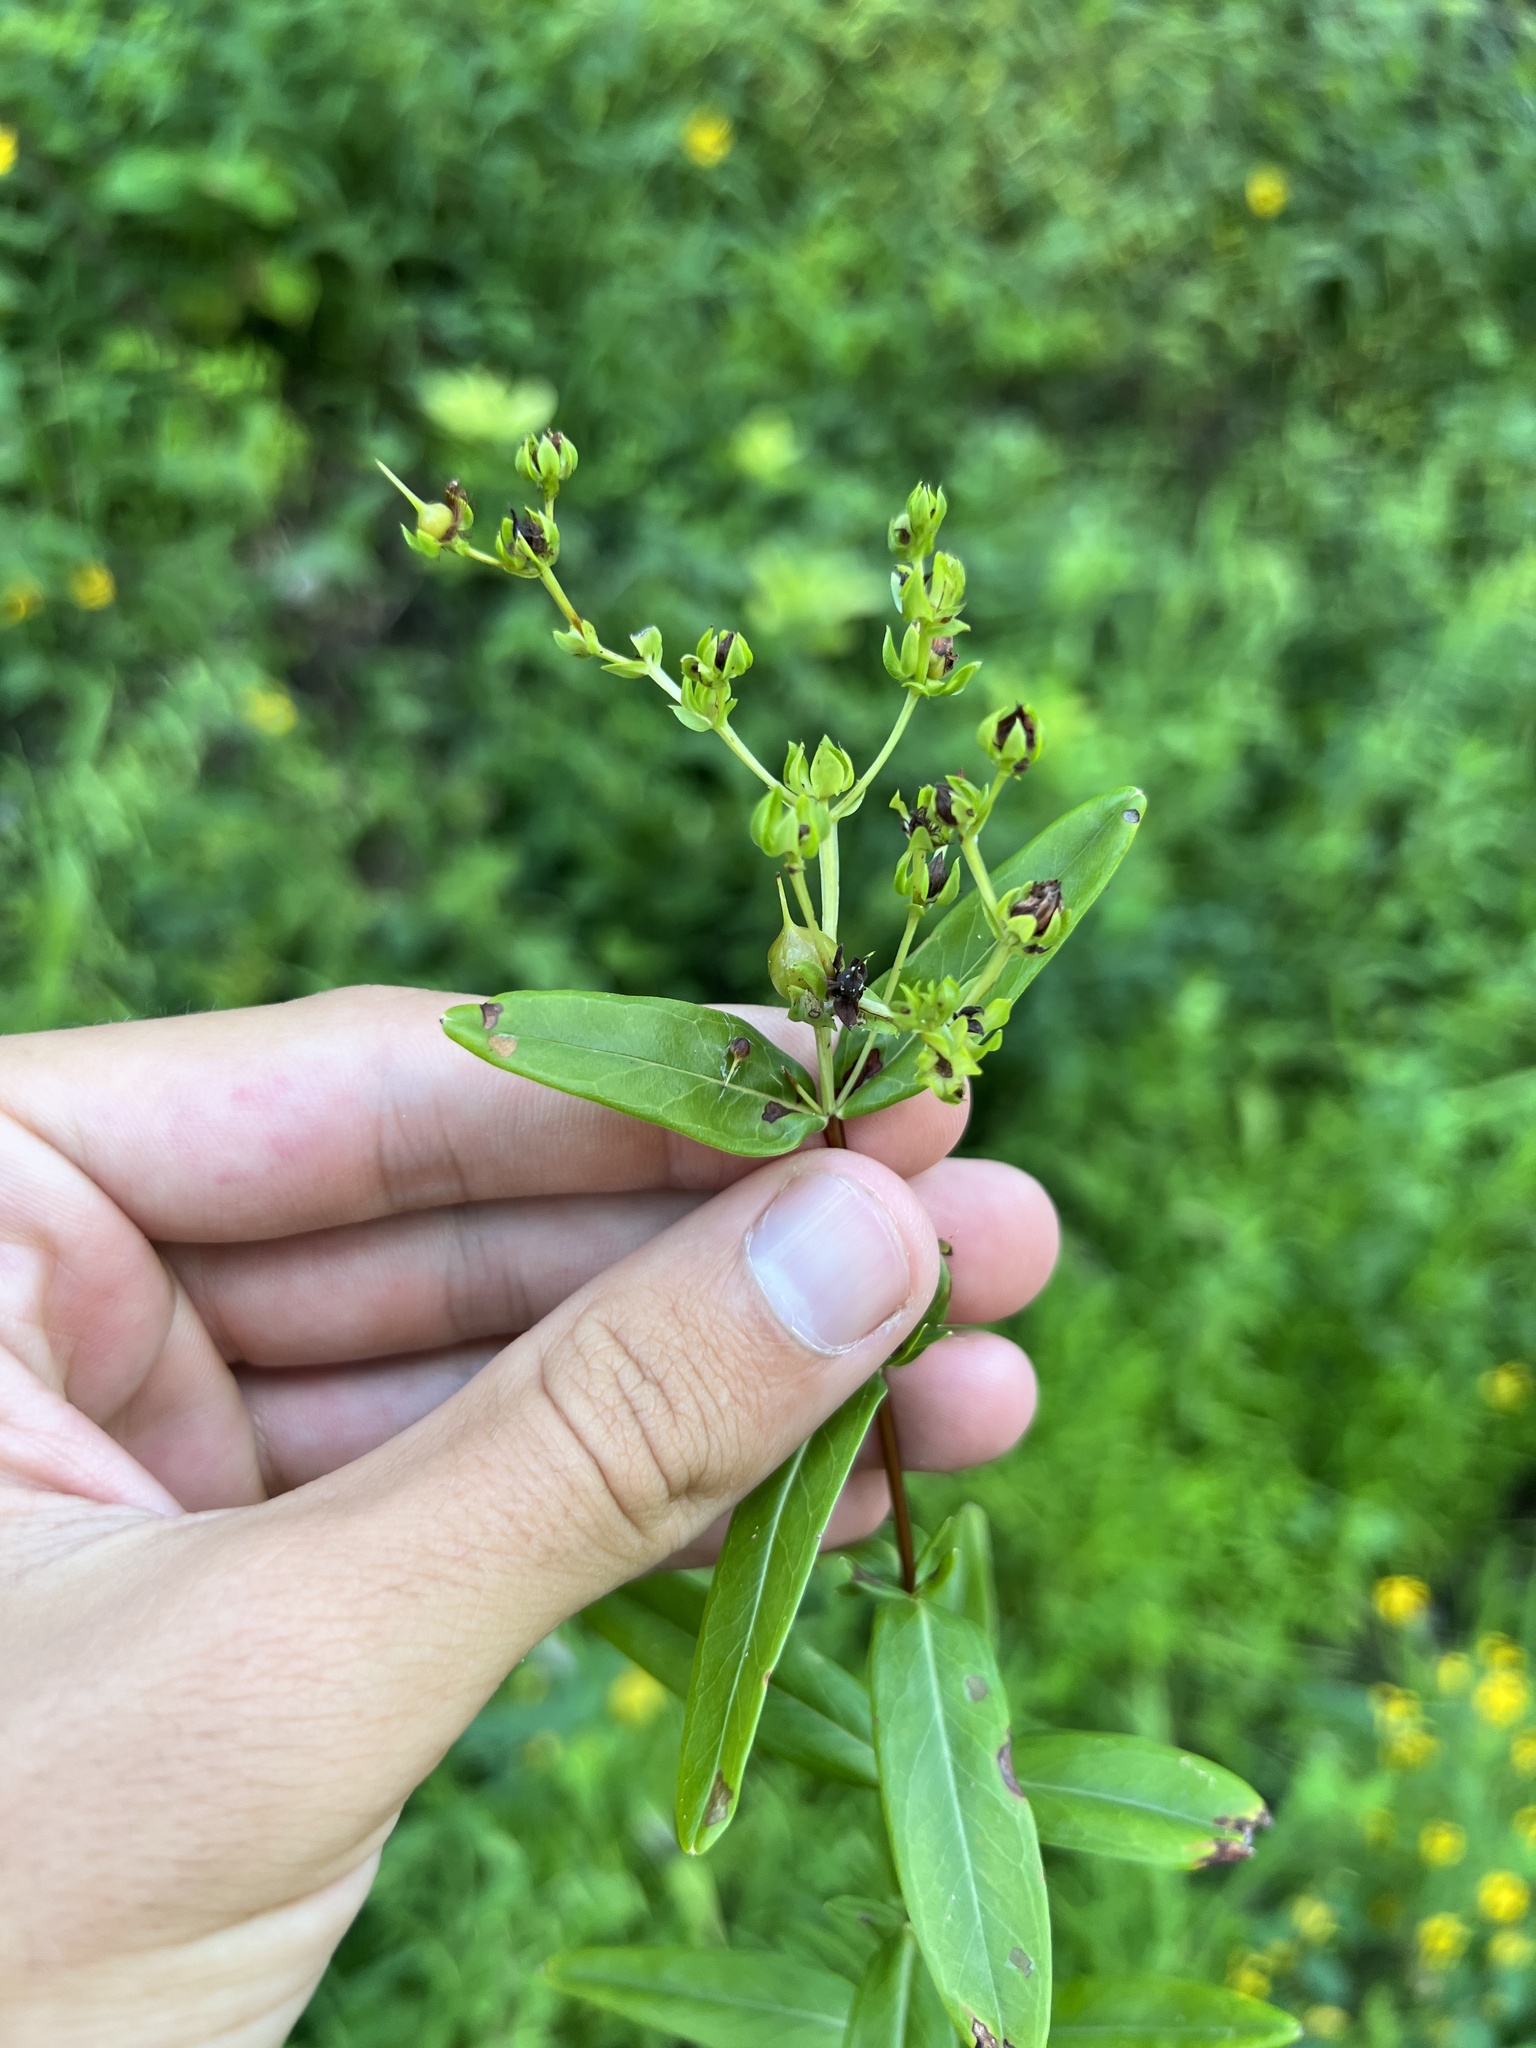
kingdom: Plantae
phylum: Tracheophyta
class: Magnoliopsida
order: Malpighiales
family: Hypericaceae
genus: Hypericum
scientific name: Hypericum sphaerocarpum
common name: Round-fruited st. john's-wort
